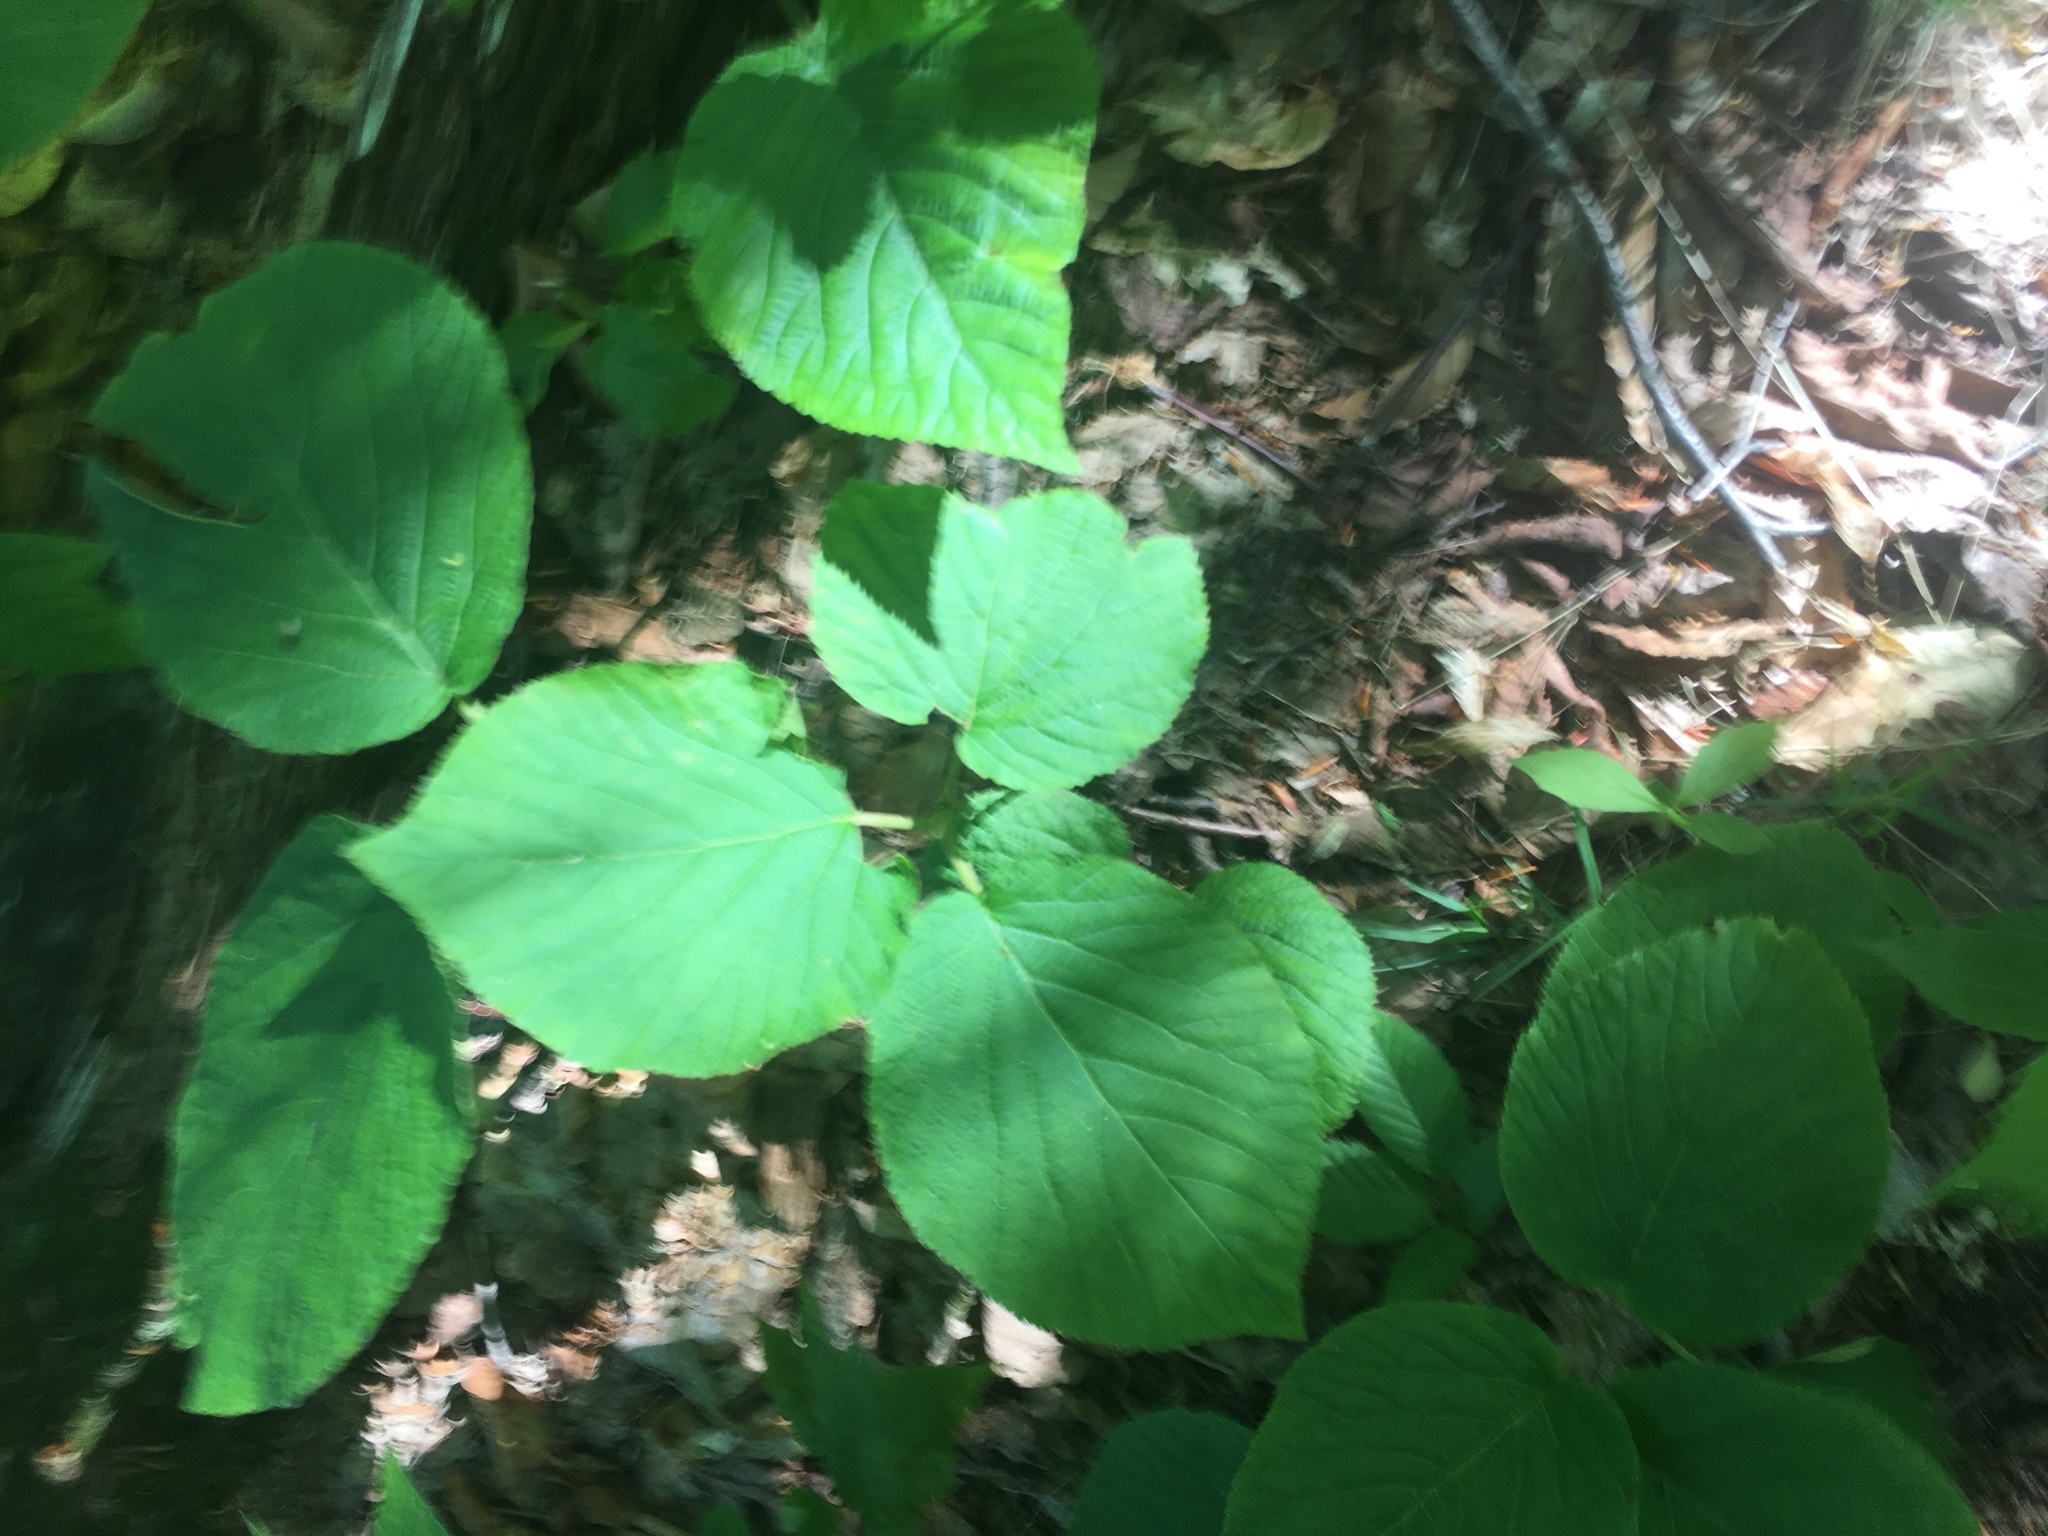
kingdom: Plantae
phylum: Tracheophyta
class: Magnoliopsida
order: Dipsacales
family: Viburnaceae
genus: Viburnum
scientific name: Viburnum lantanoides
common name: Hobblebush
